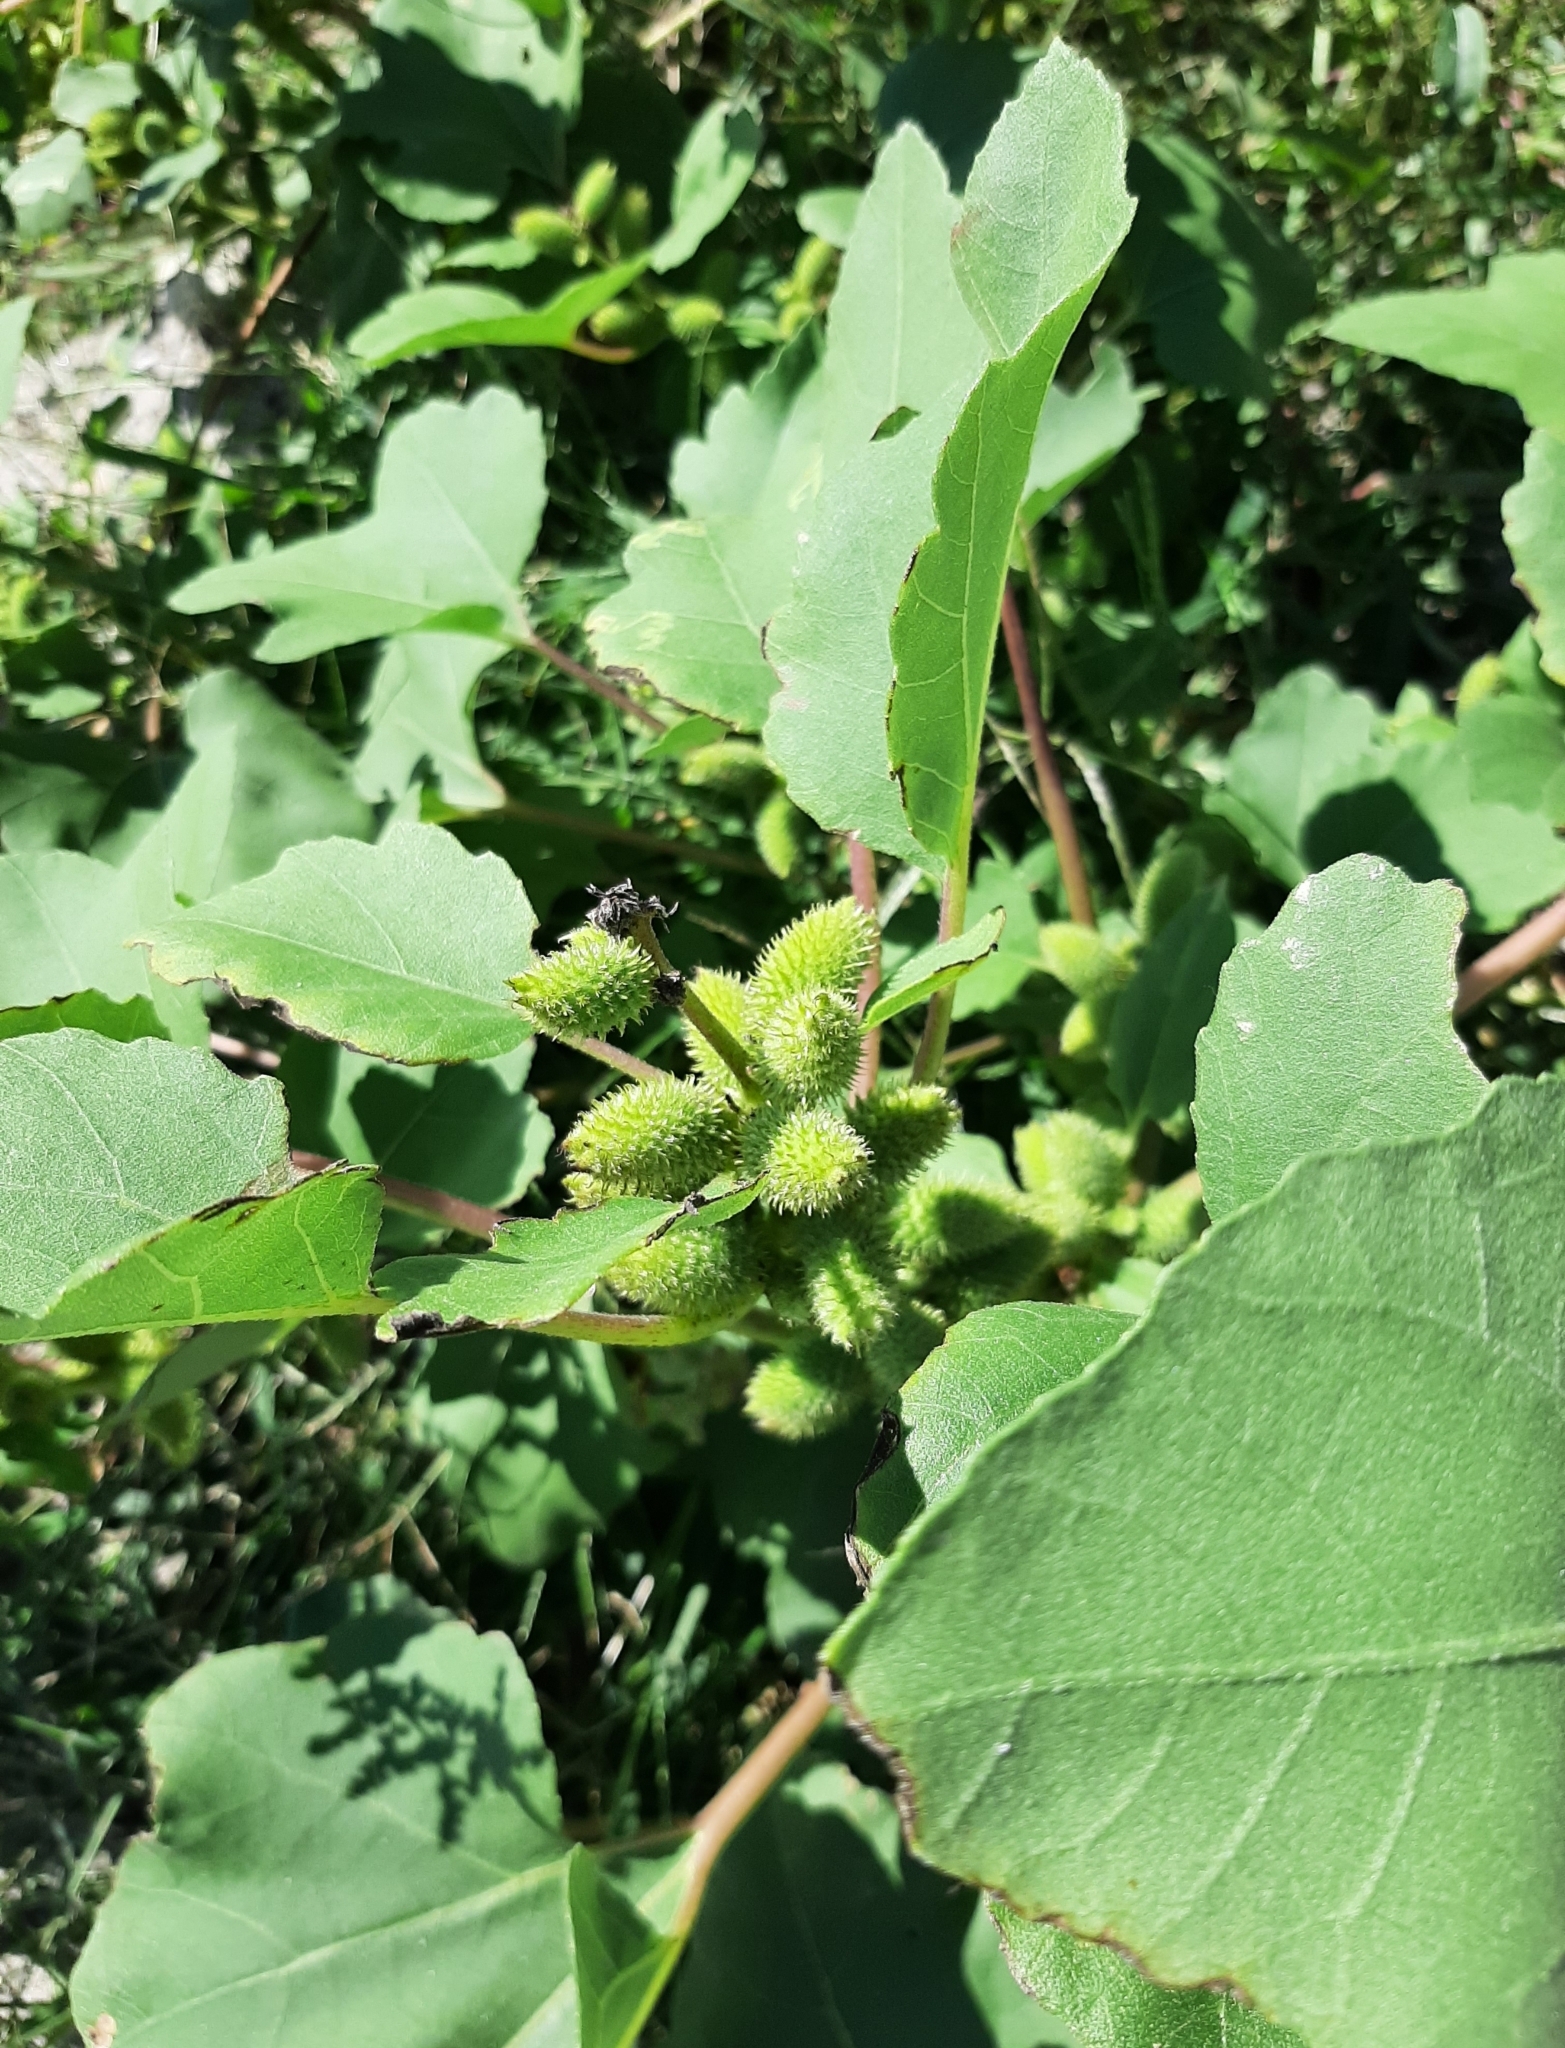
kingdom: Plantae
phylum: Tracheophyta
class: Magnoliopsida
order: Asterales
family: Asteraceae
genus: Xanthium
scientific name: Xanthium strumarium
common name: Rough cocklebur
